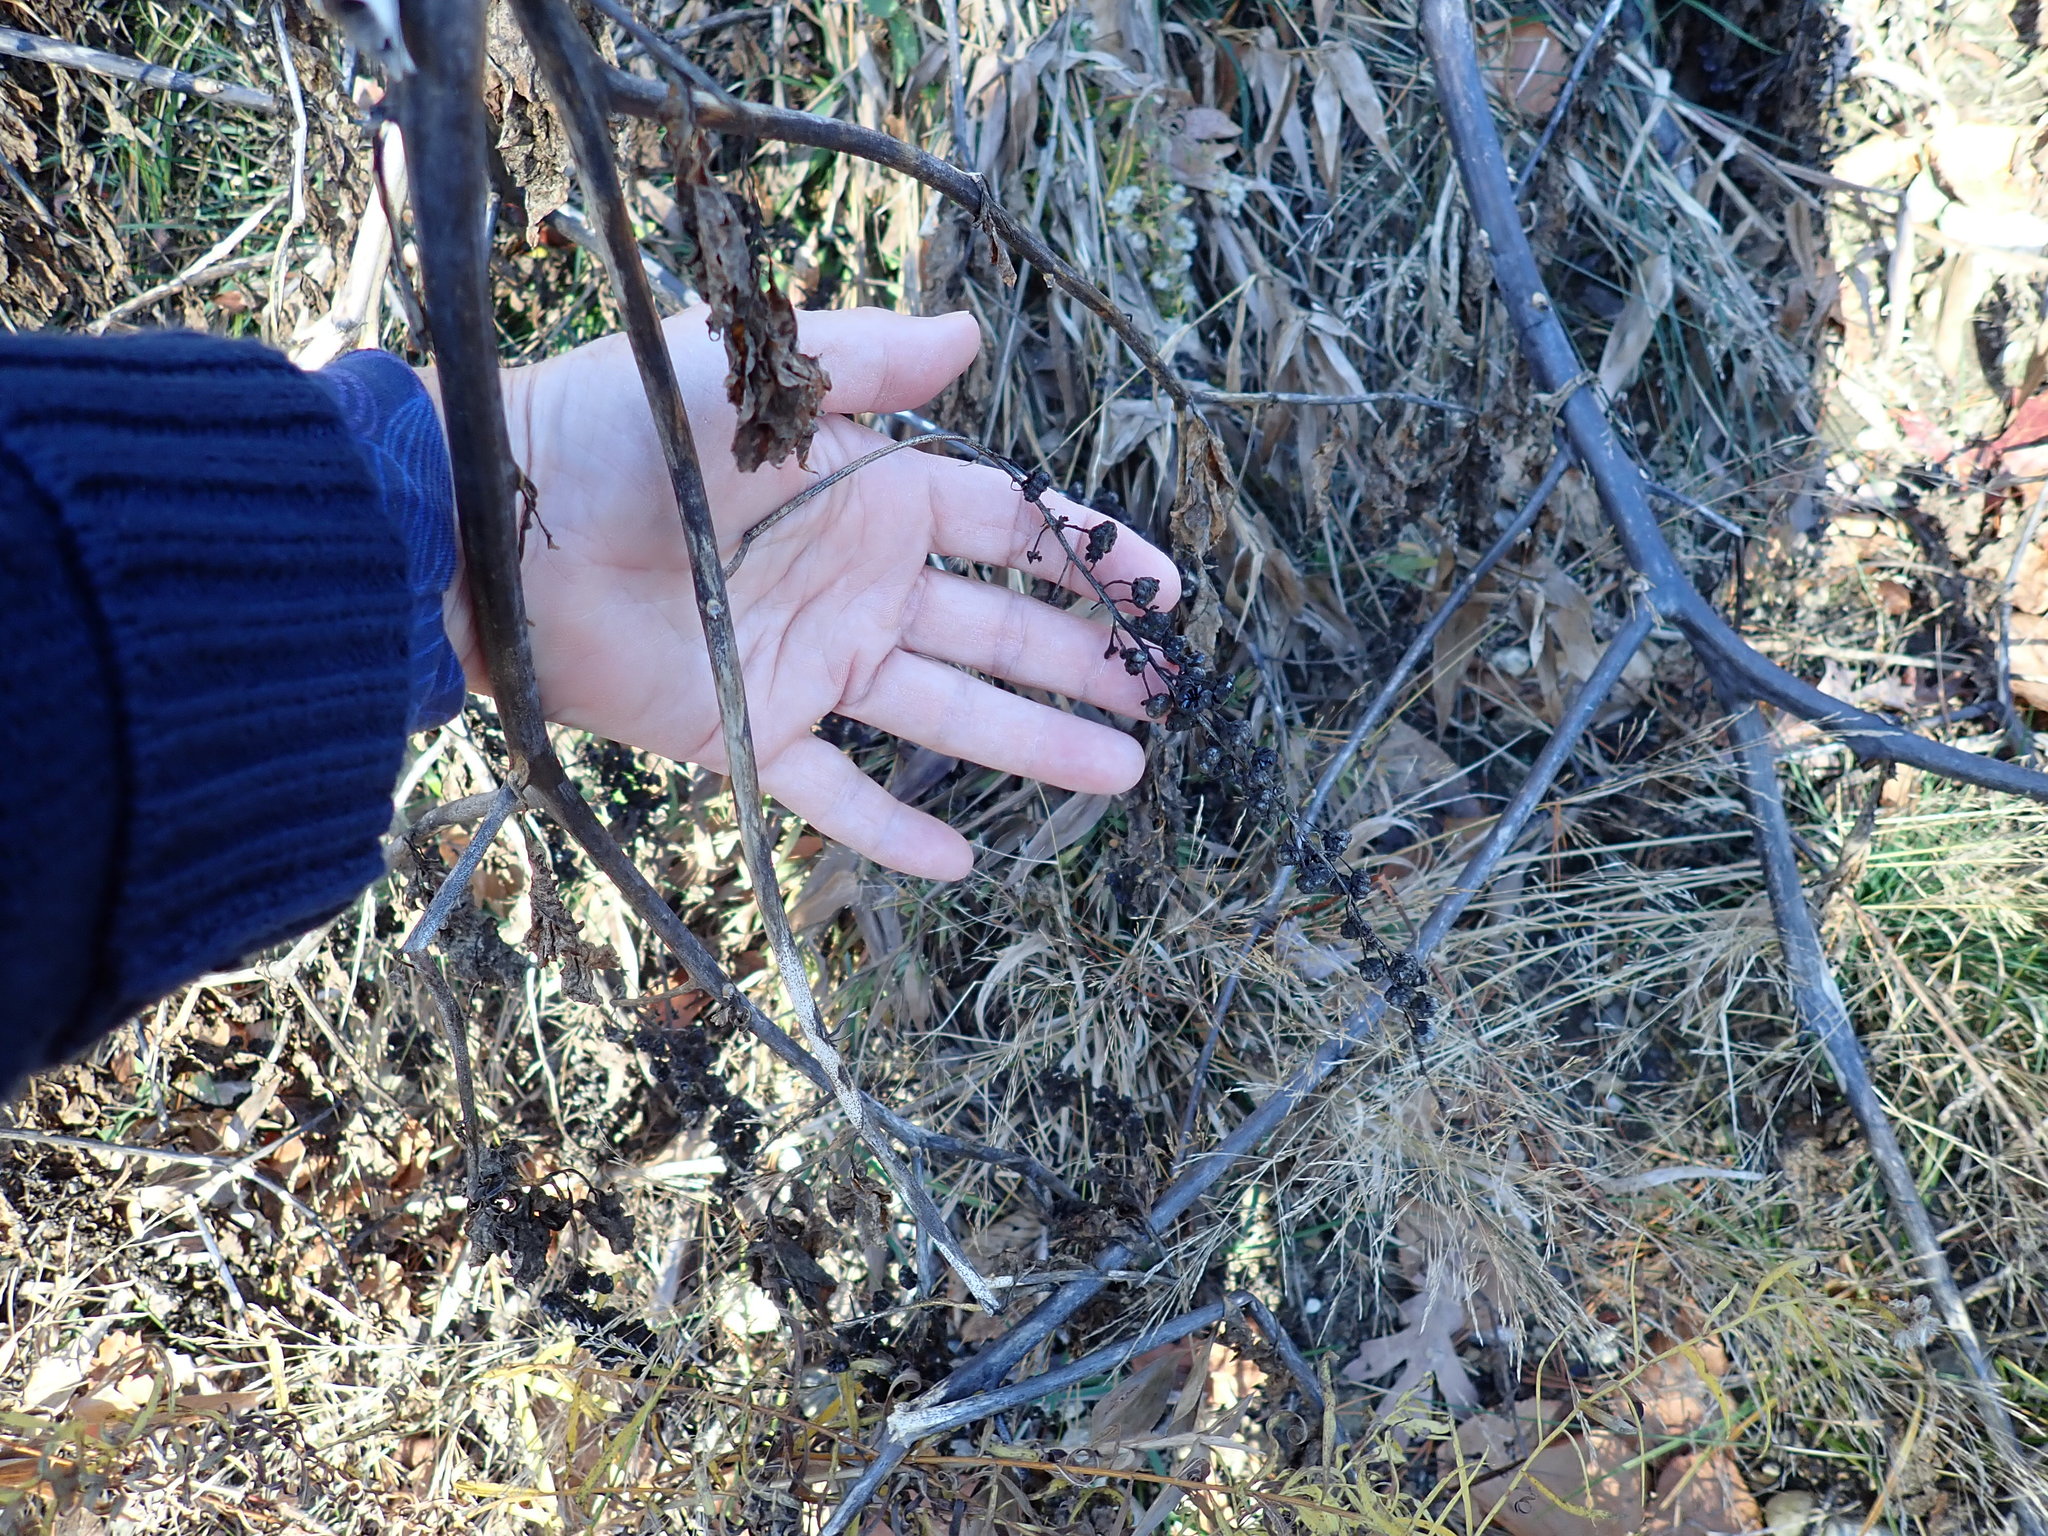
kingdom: Plantae
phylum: Tracheophyta
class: Magnoliopsida
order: Caryophyllales
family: Phytolaccaceae
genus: Phytolacca
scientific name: Phytolacca americana
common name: American pokeweed
